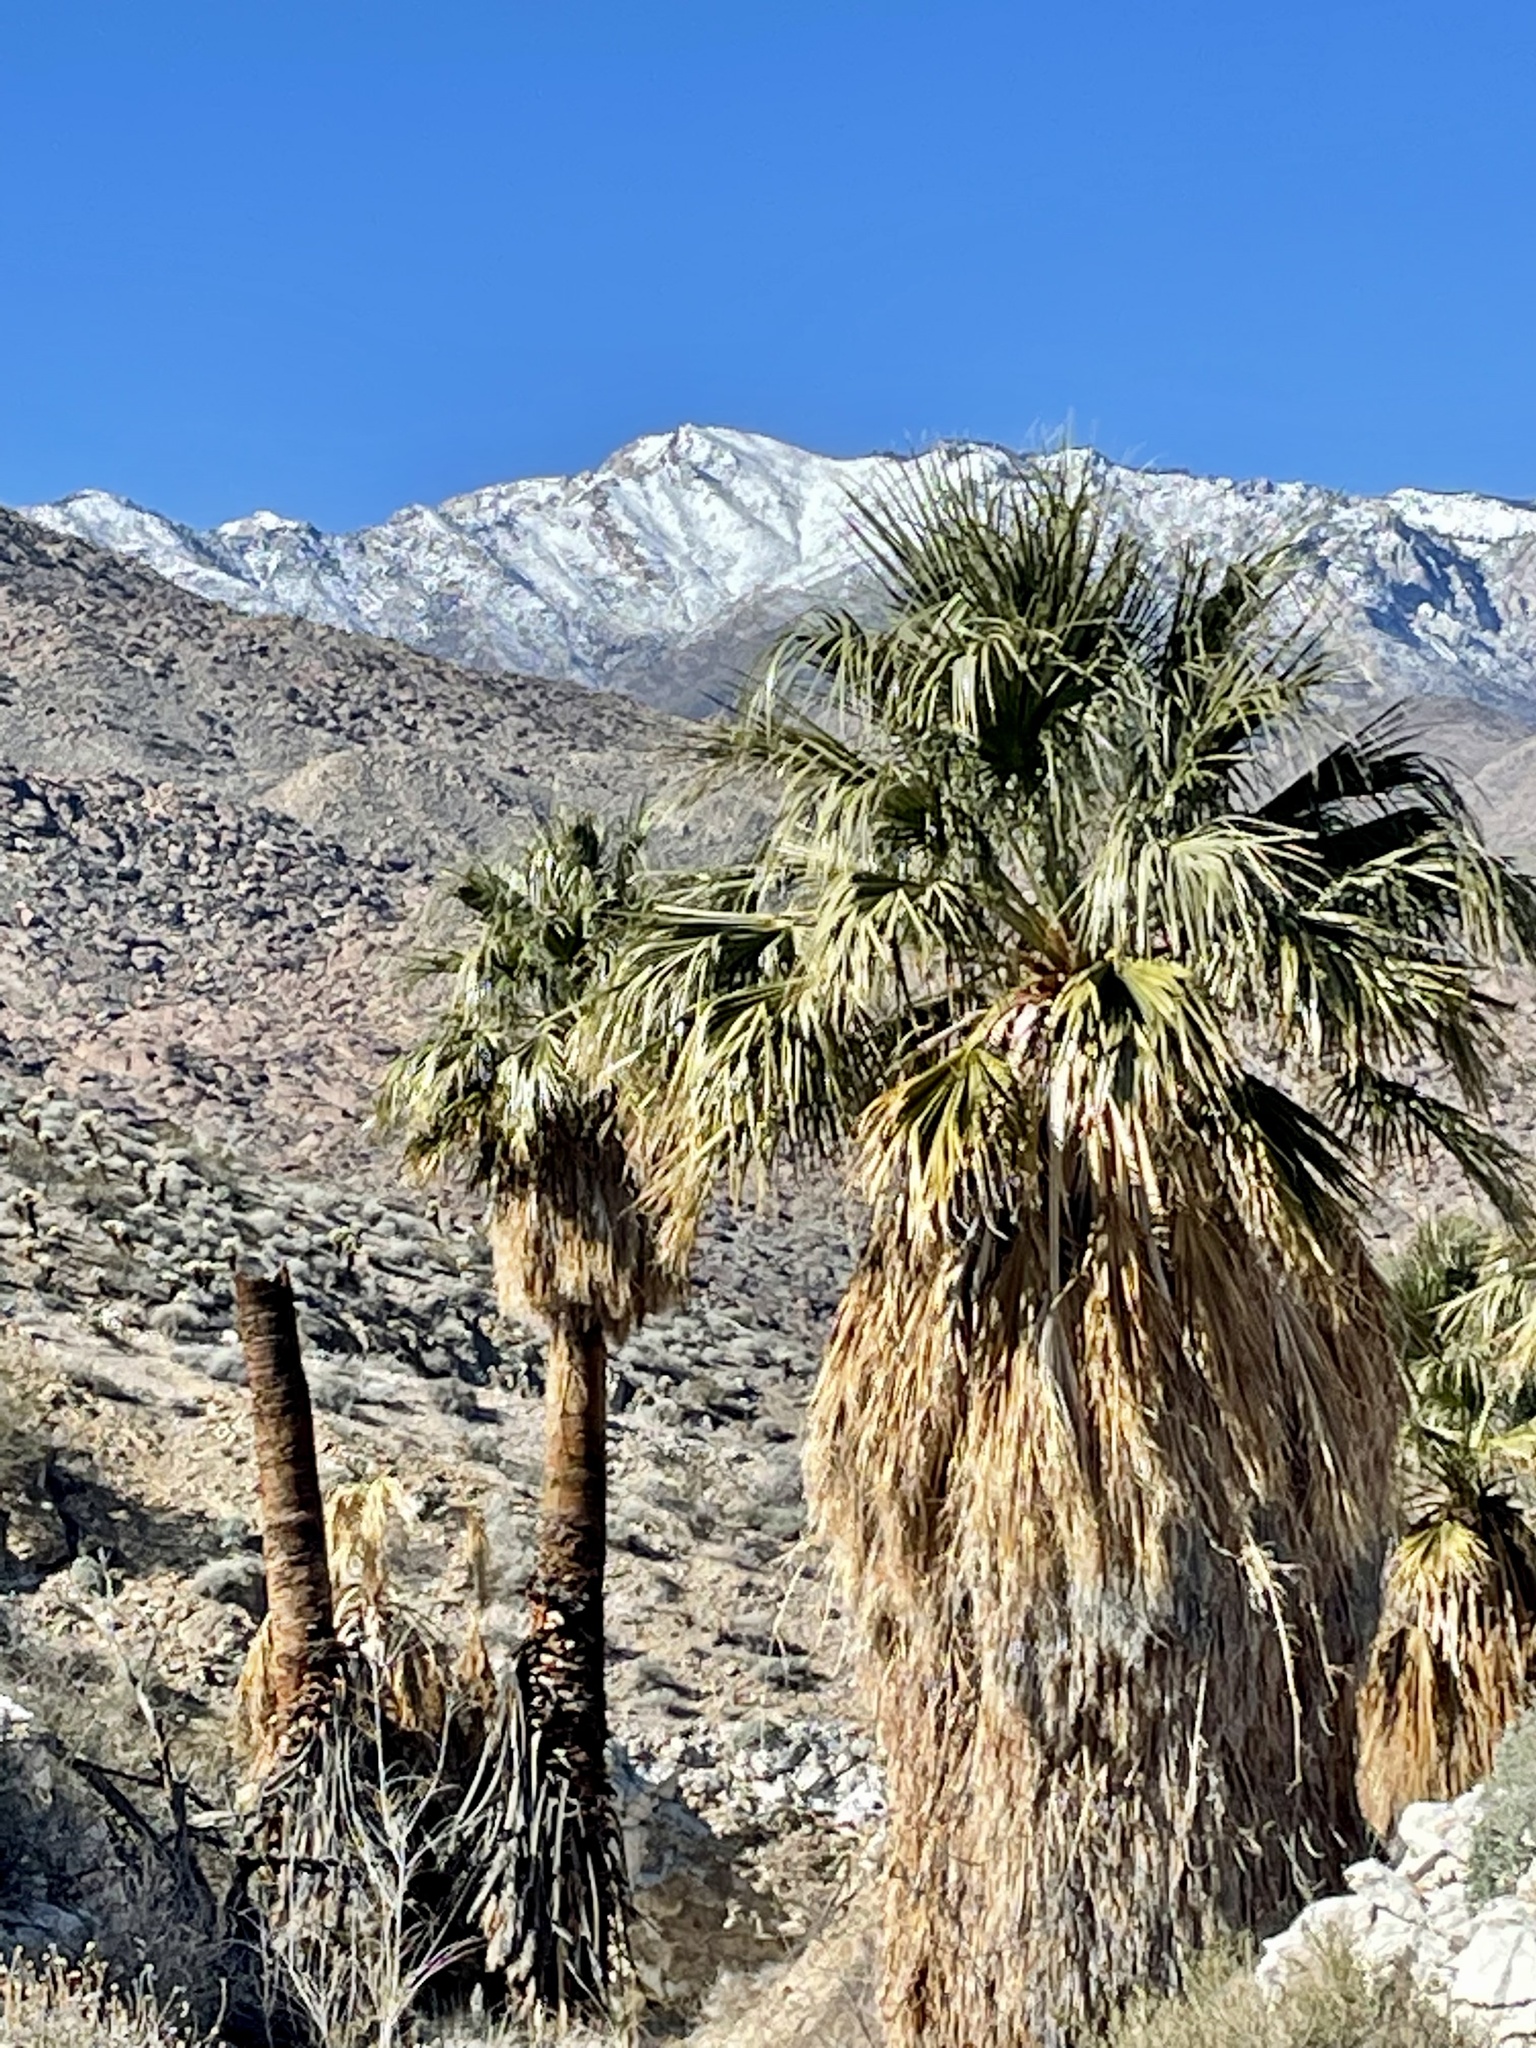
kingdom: Plantae
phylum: Tracheophyta
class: Liliopsida
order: Arecales
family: Arecaceae
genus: Washingtonia
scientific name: Washingtonia filifera
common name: California fan palm
